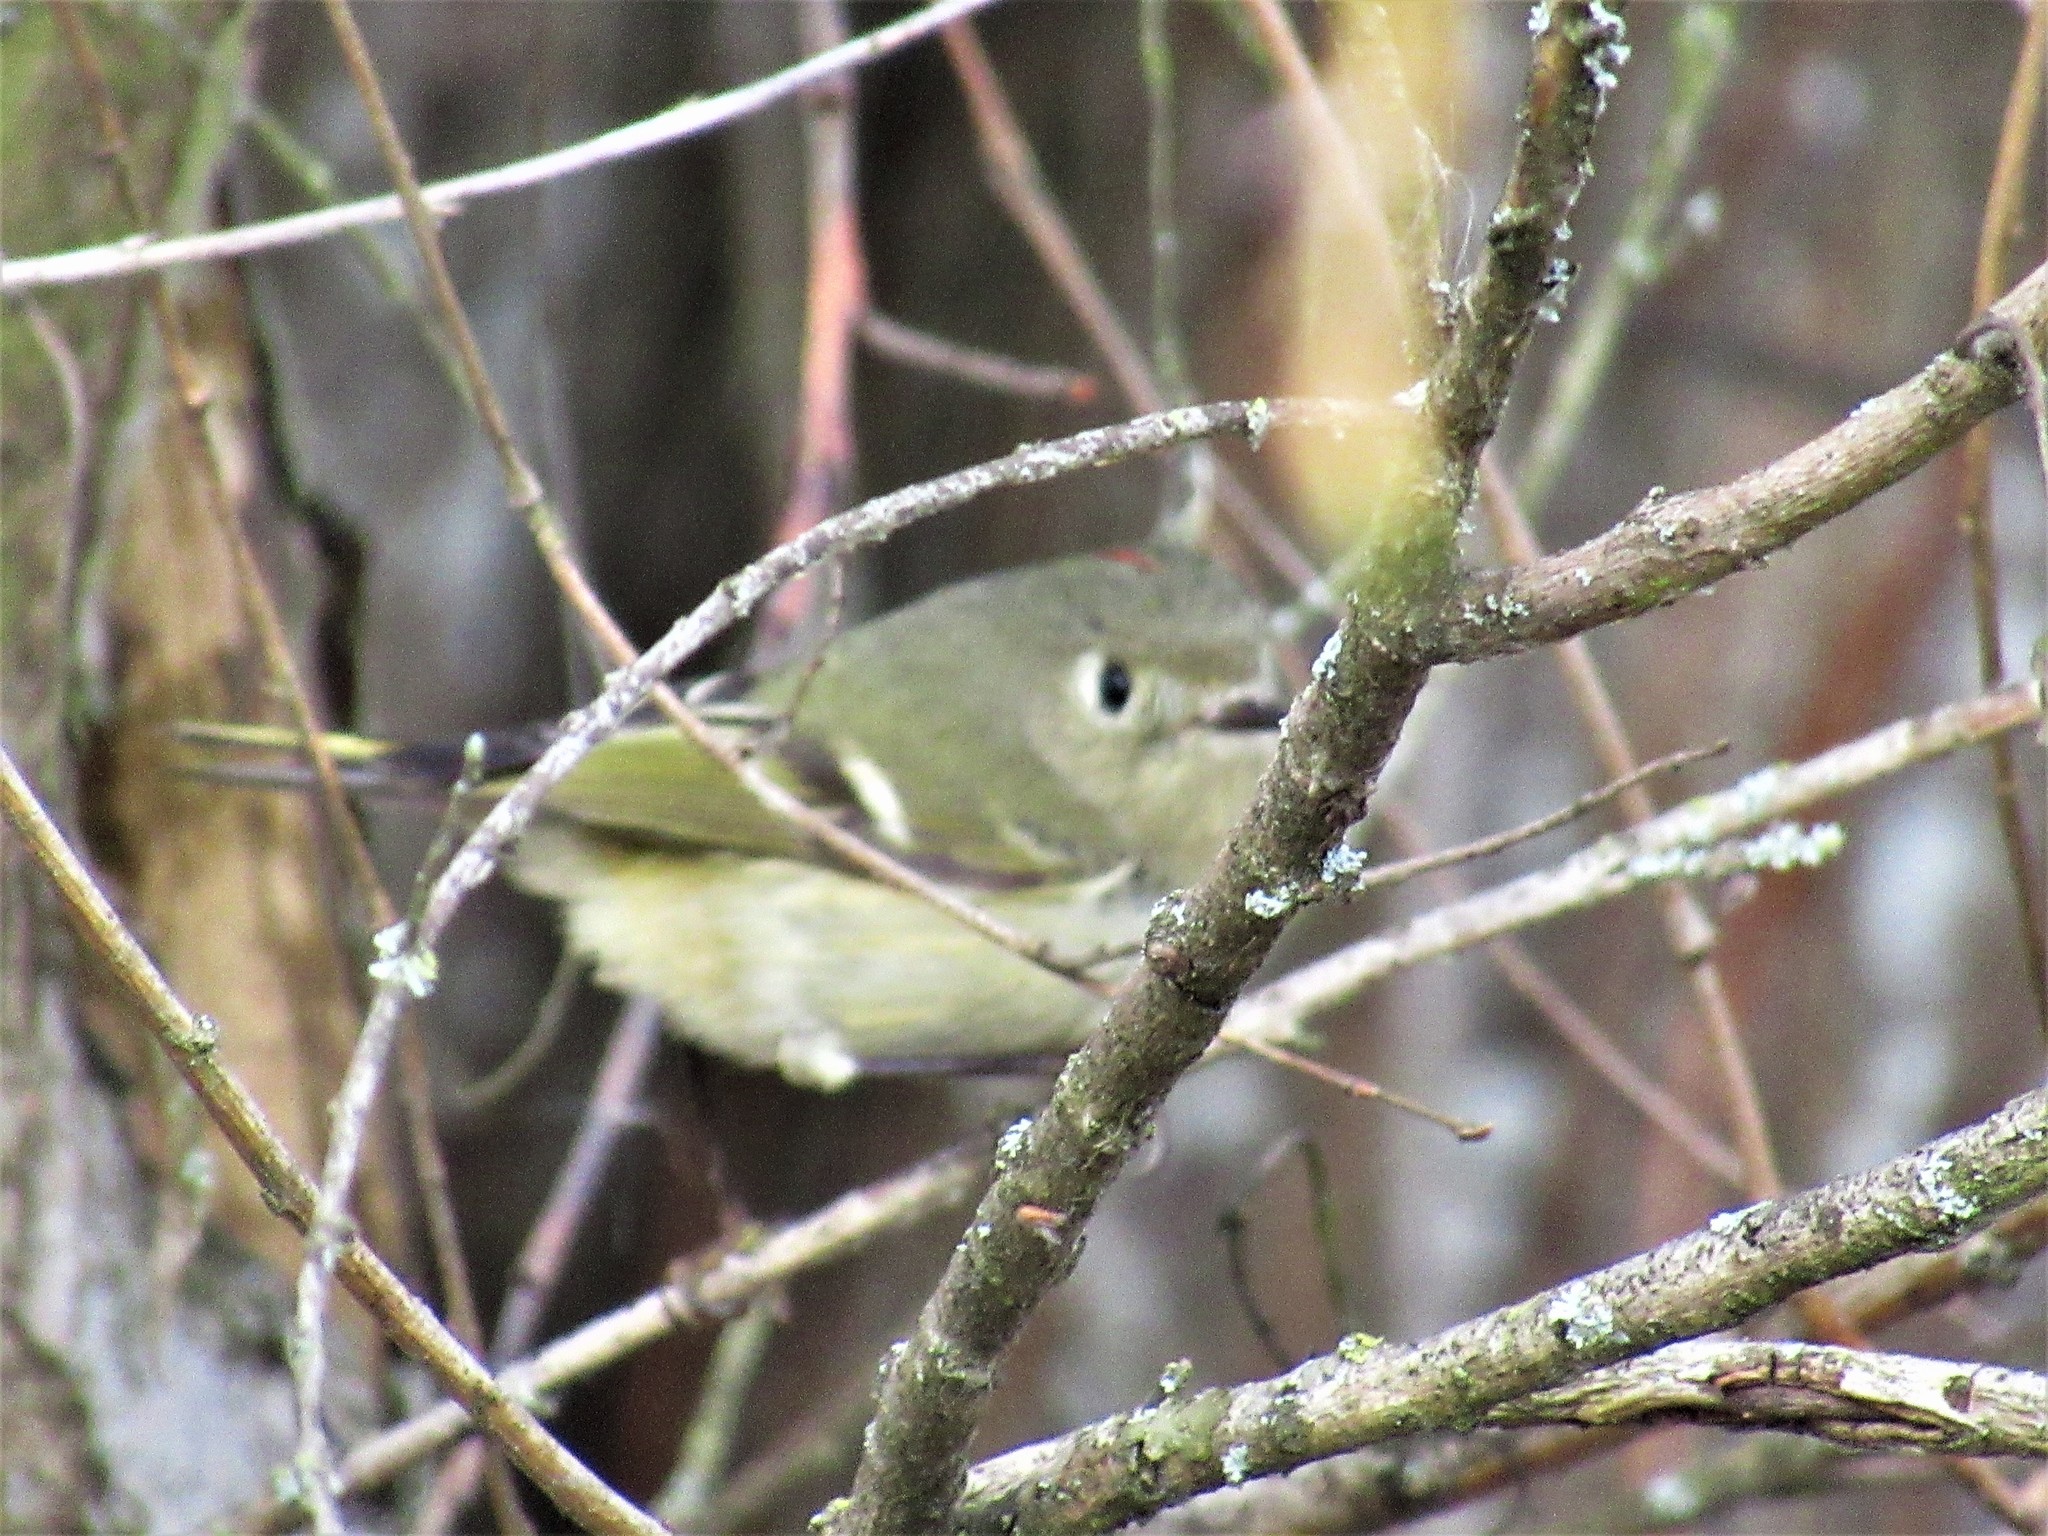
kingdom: Animalia
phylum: Chordata
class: Aves
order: Passeriformes
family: Regulidae
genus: Regulus
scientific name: Regulus calendula
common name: Ruby-crowned kinglet
